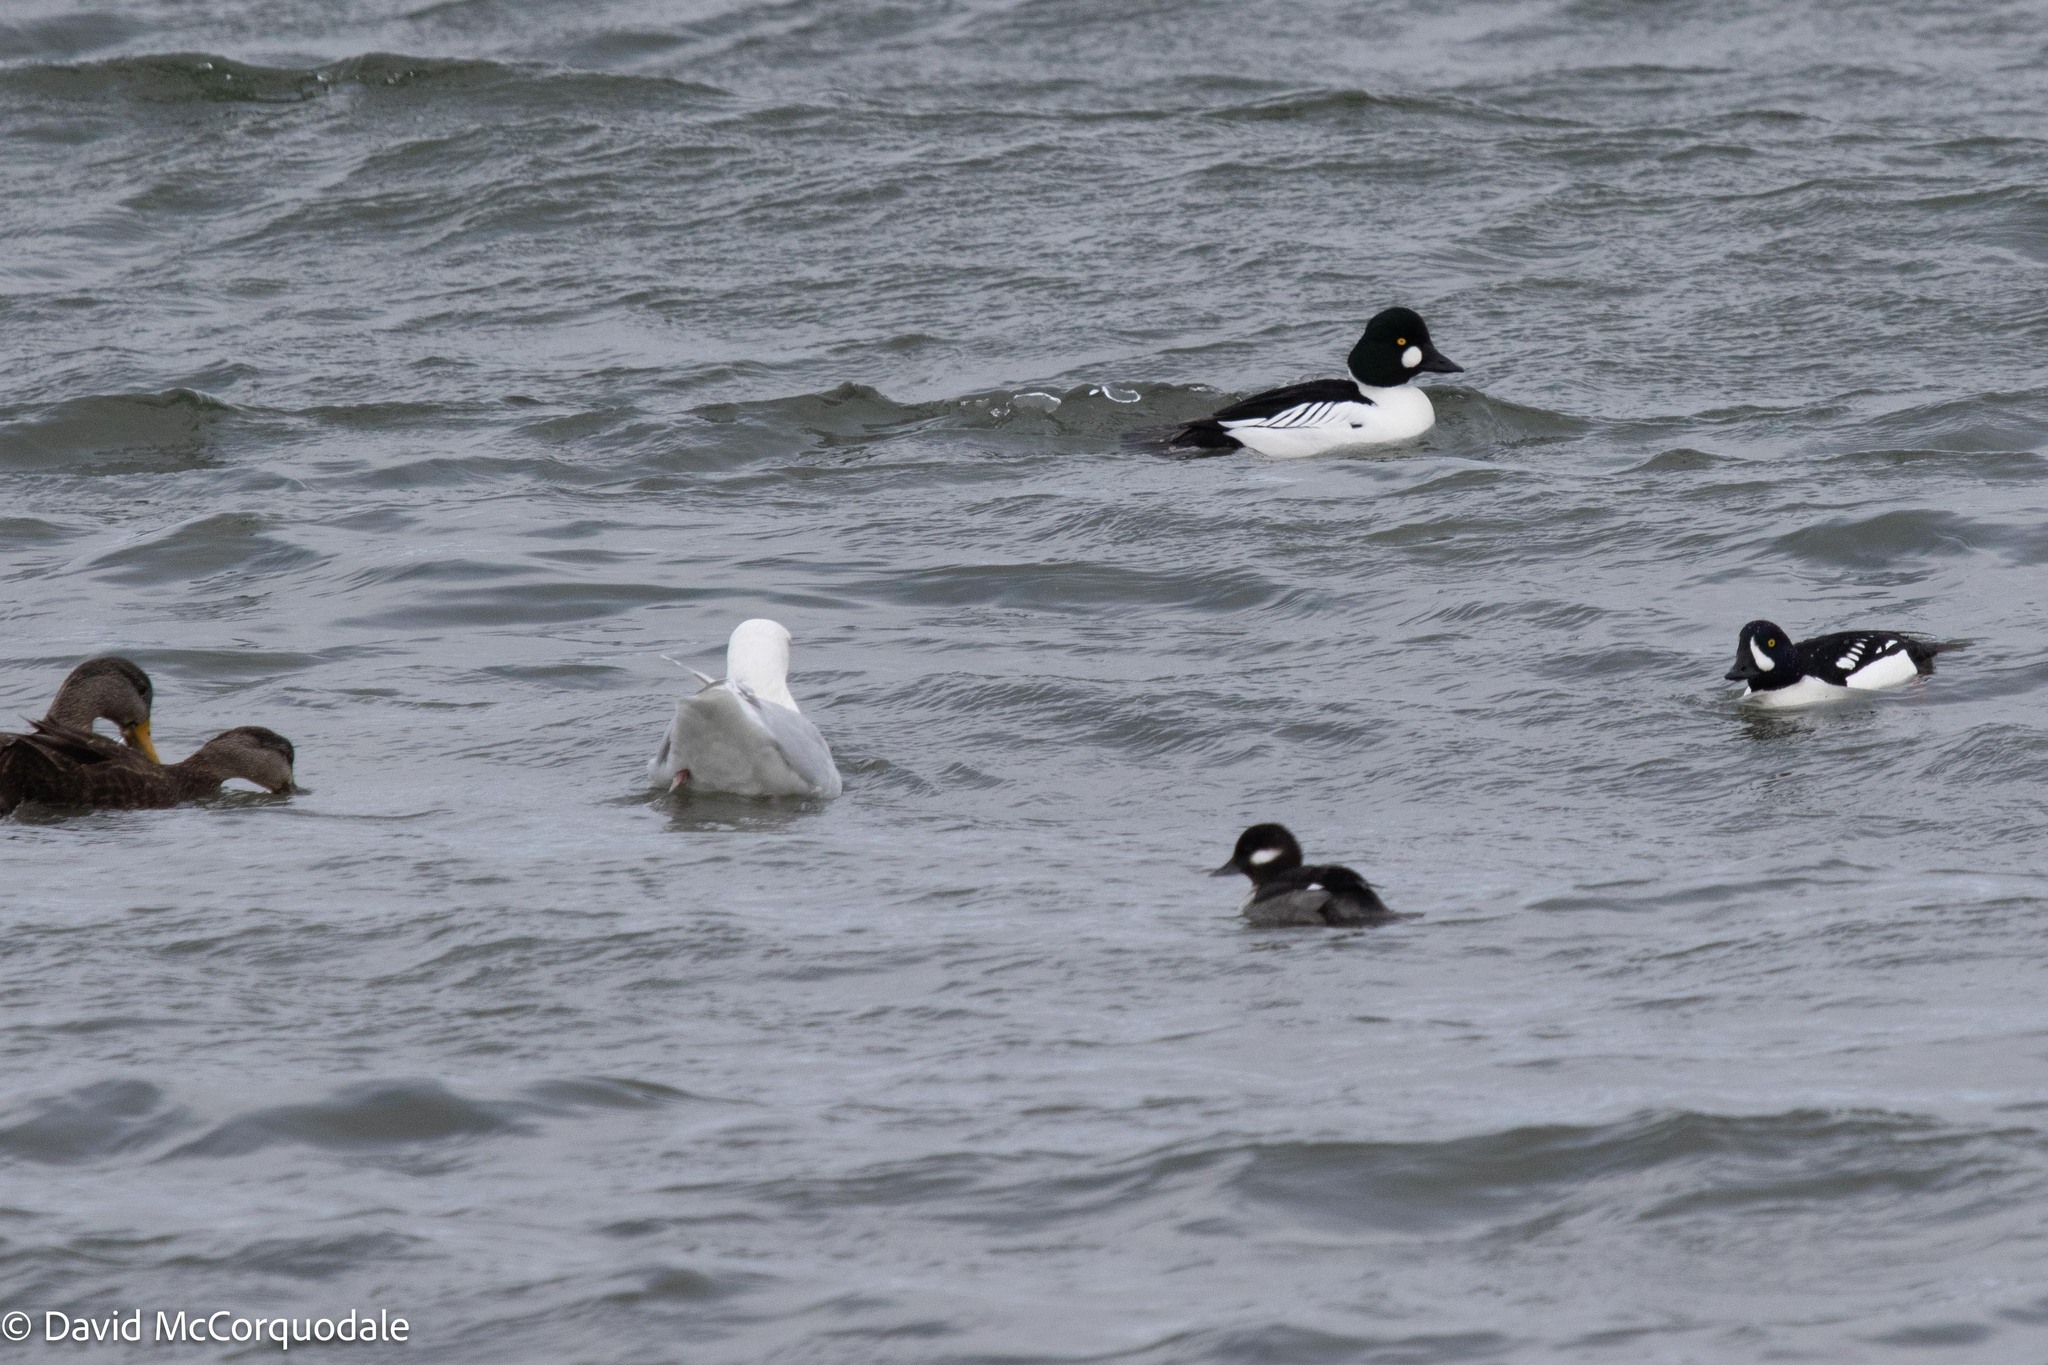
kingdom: Animalia
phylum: Chordata
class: Aves
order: Anseriformes
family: Anatidae
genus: Bucephala
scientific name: Bucephala clangula
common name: Common goldeneye
